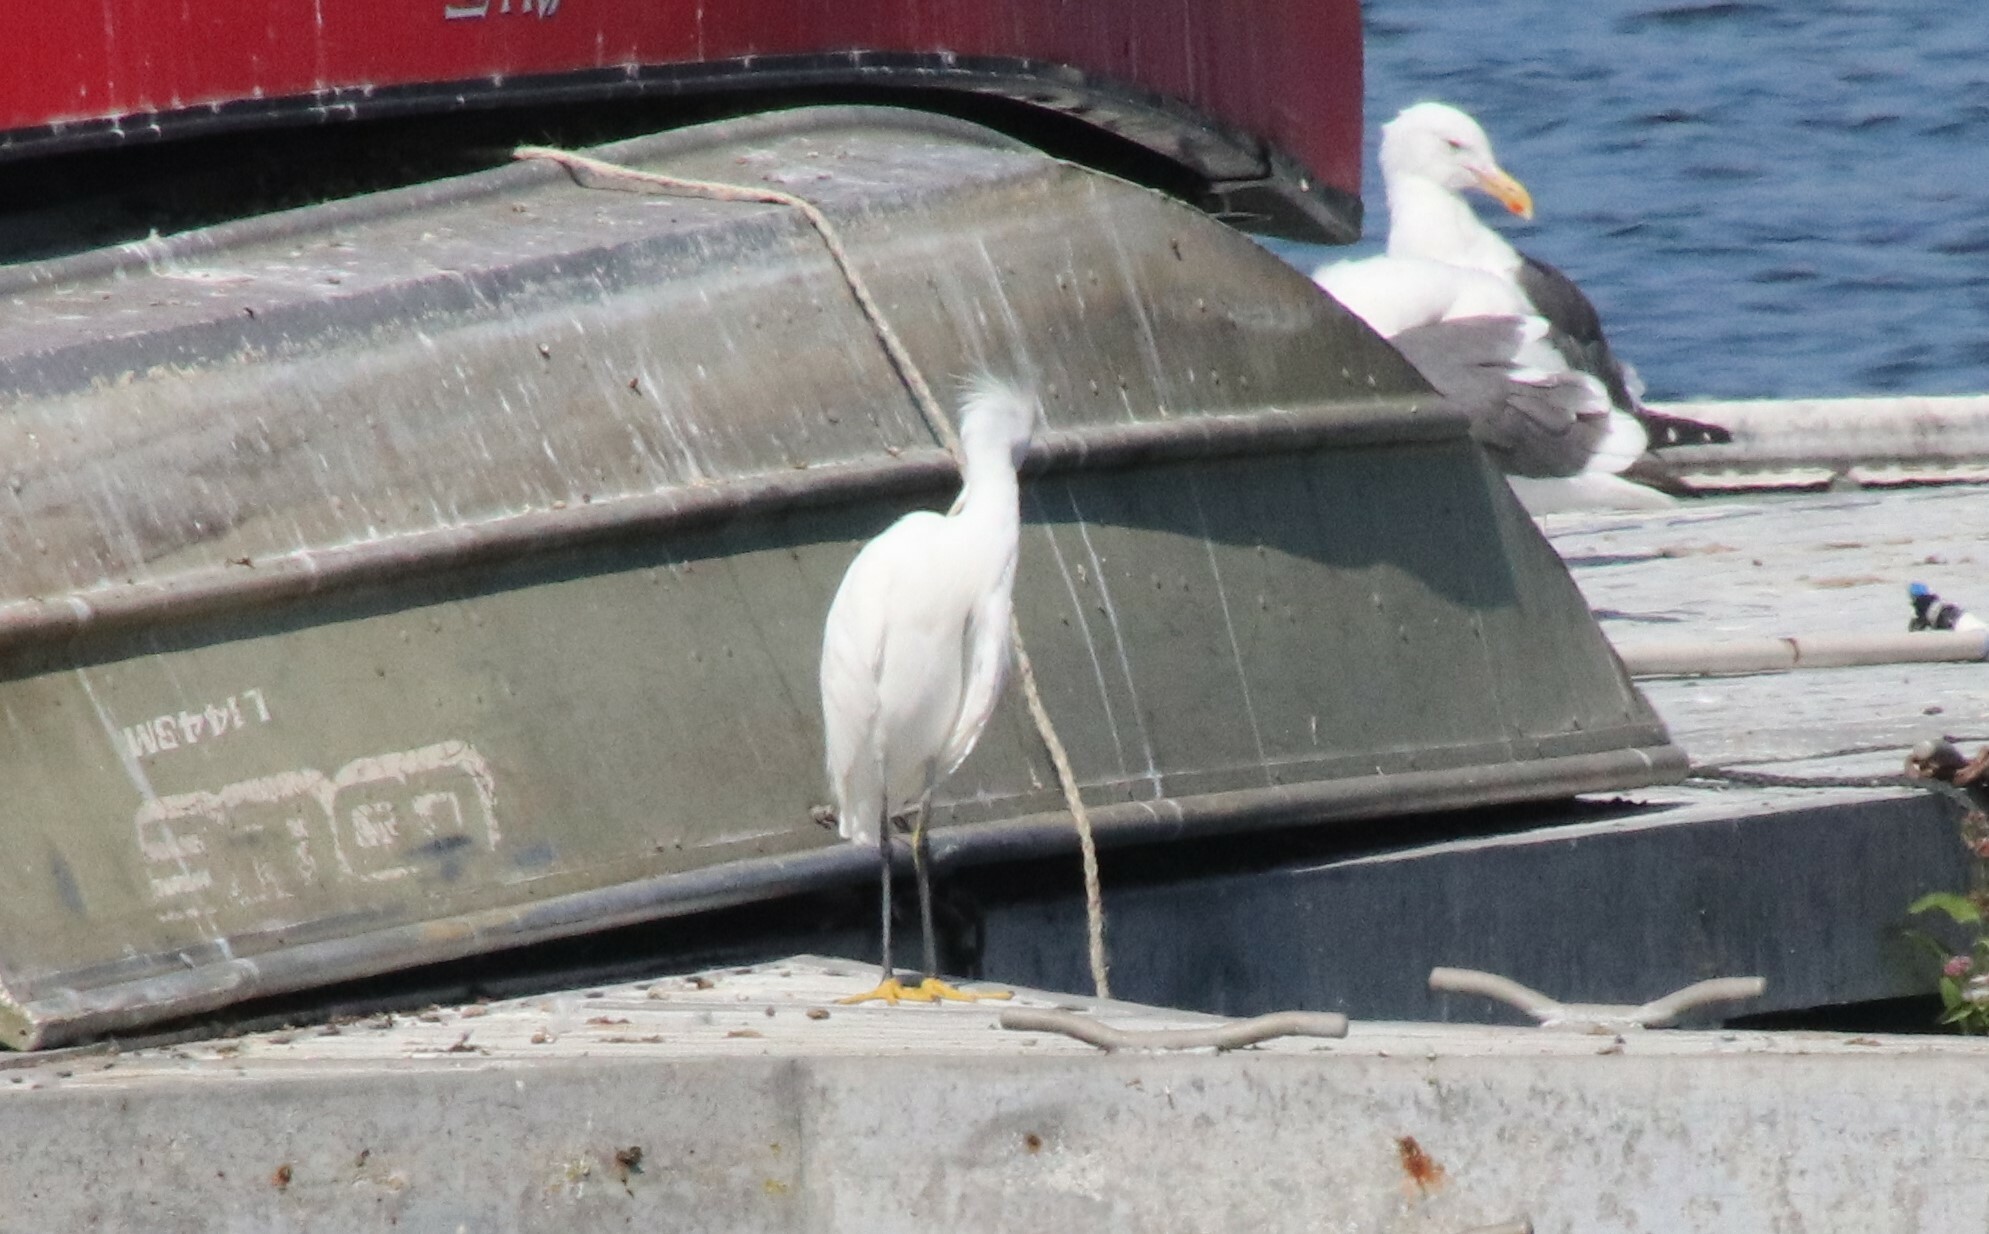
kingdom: Animalia
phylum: Chordata
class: Aves
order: Pelecaniformes
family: Ardeidae
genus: Egretta
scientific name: Egretta thula
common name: Snowy egret
